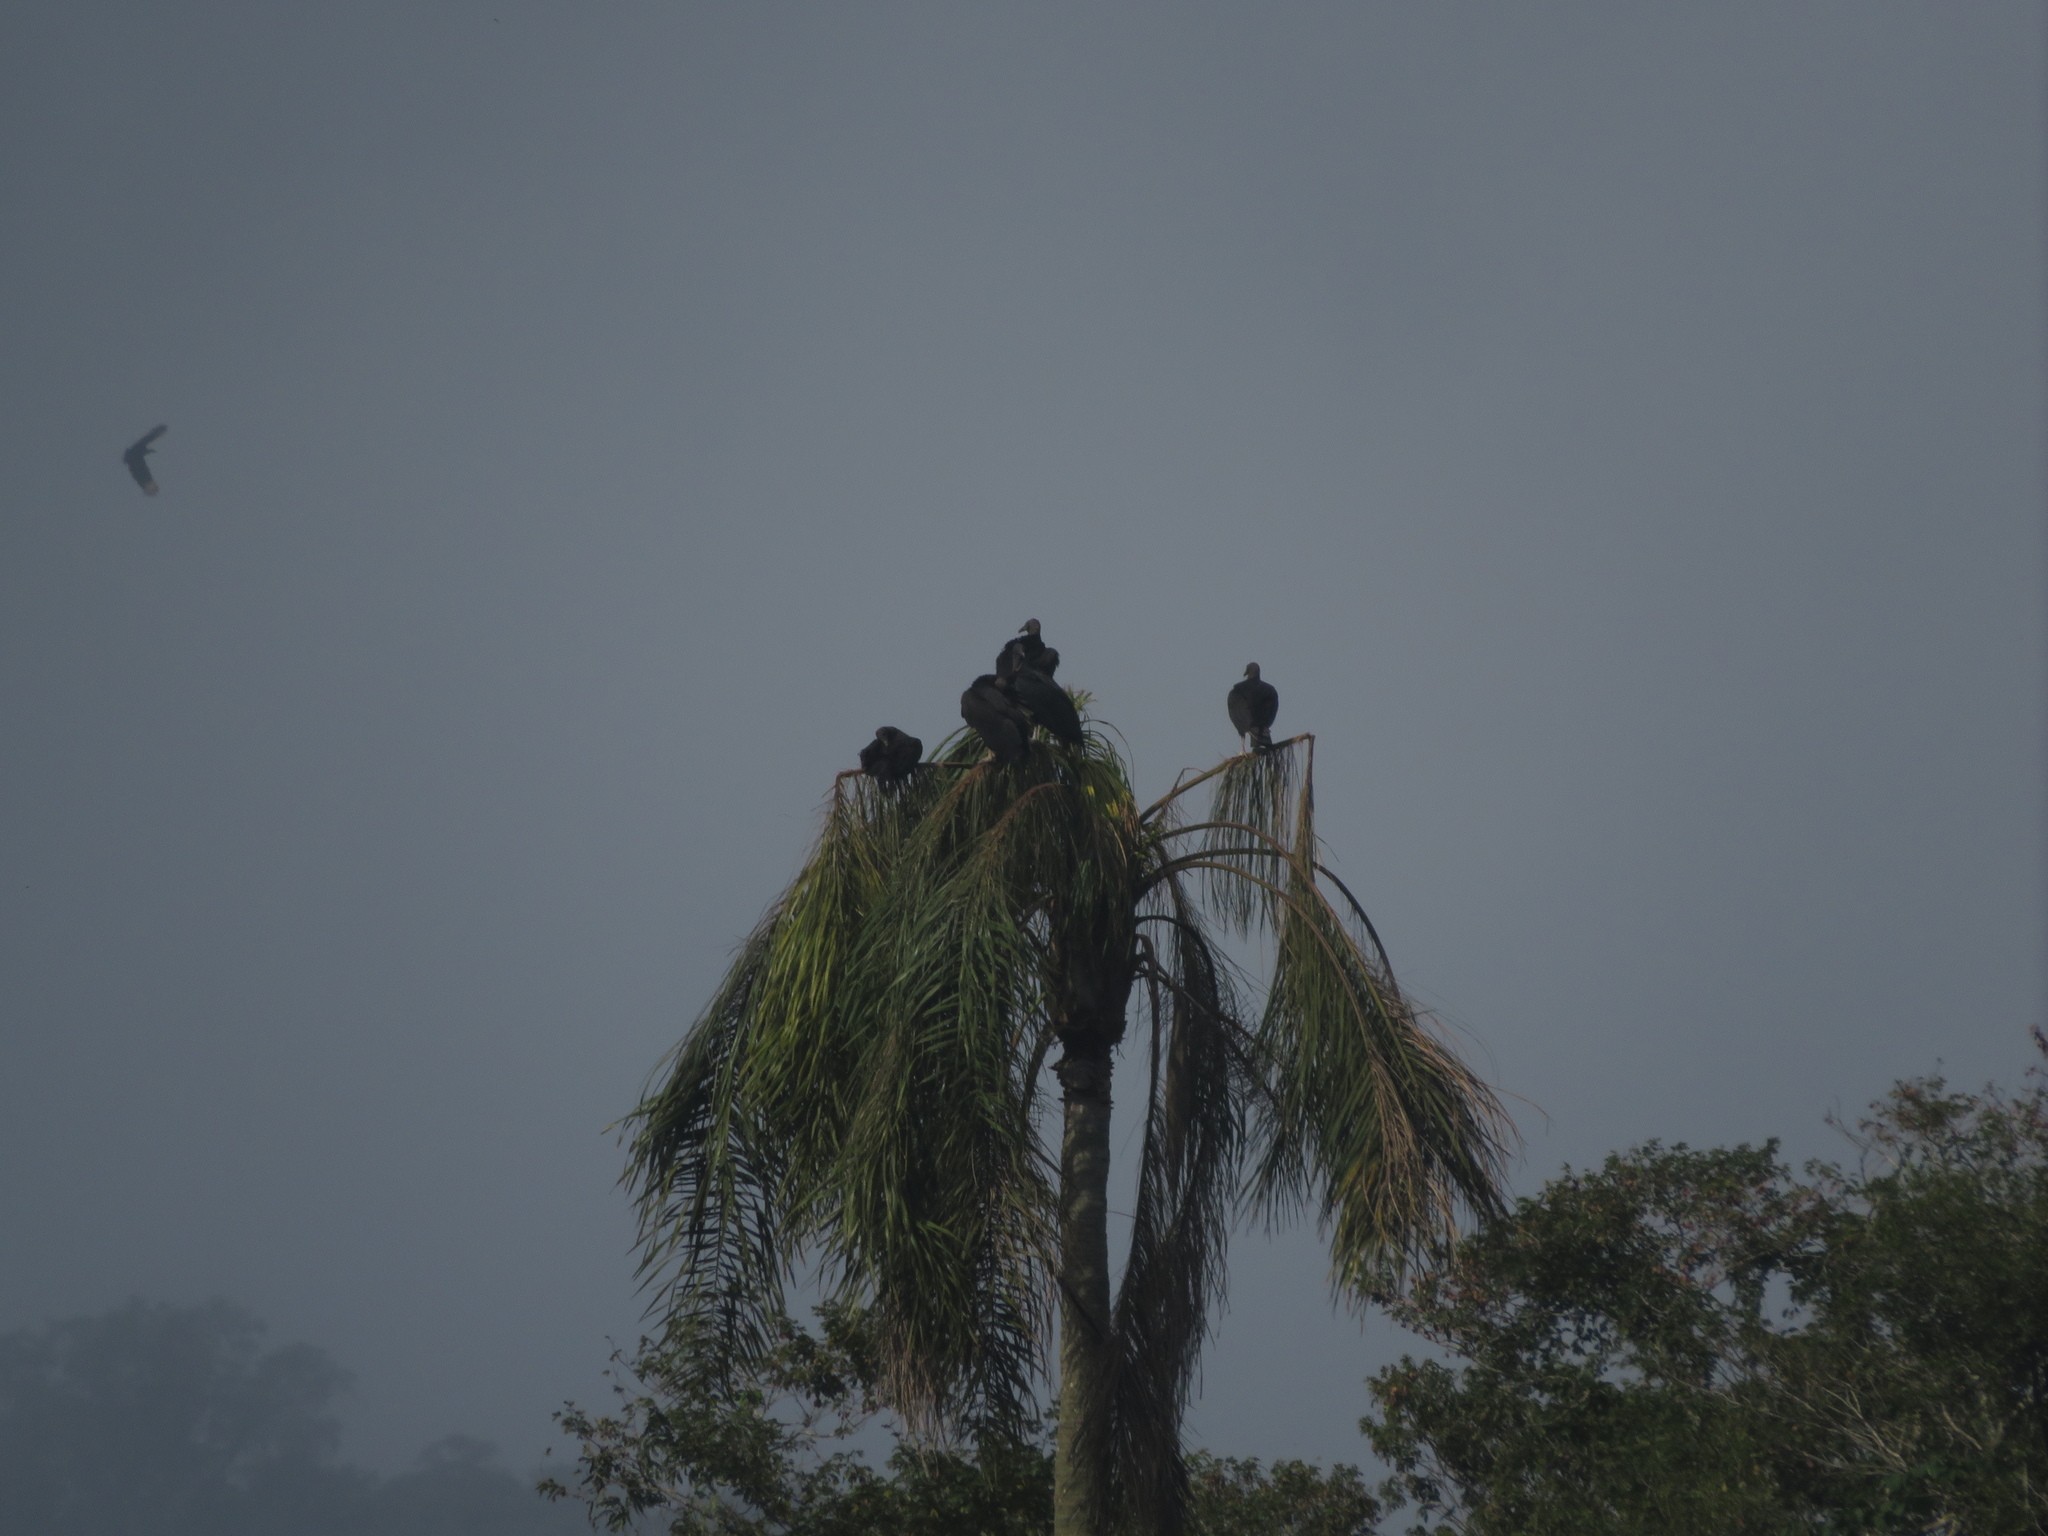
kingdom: Animalia
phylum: Chordata
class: Aves
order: Accipitriformes
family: Cathartidae
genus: Coragyps
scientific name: Coragyps atratus
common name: Black vulture
